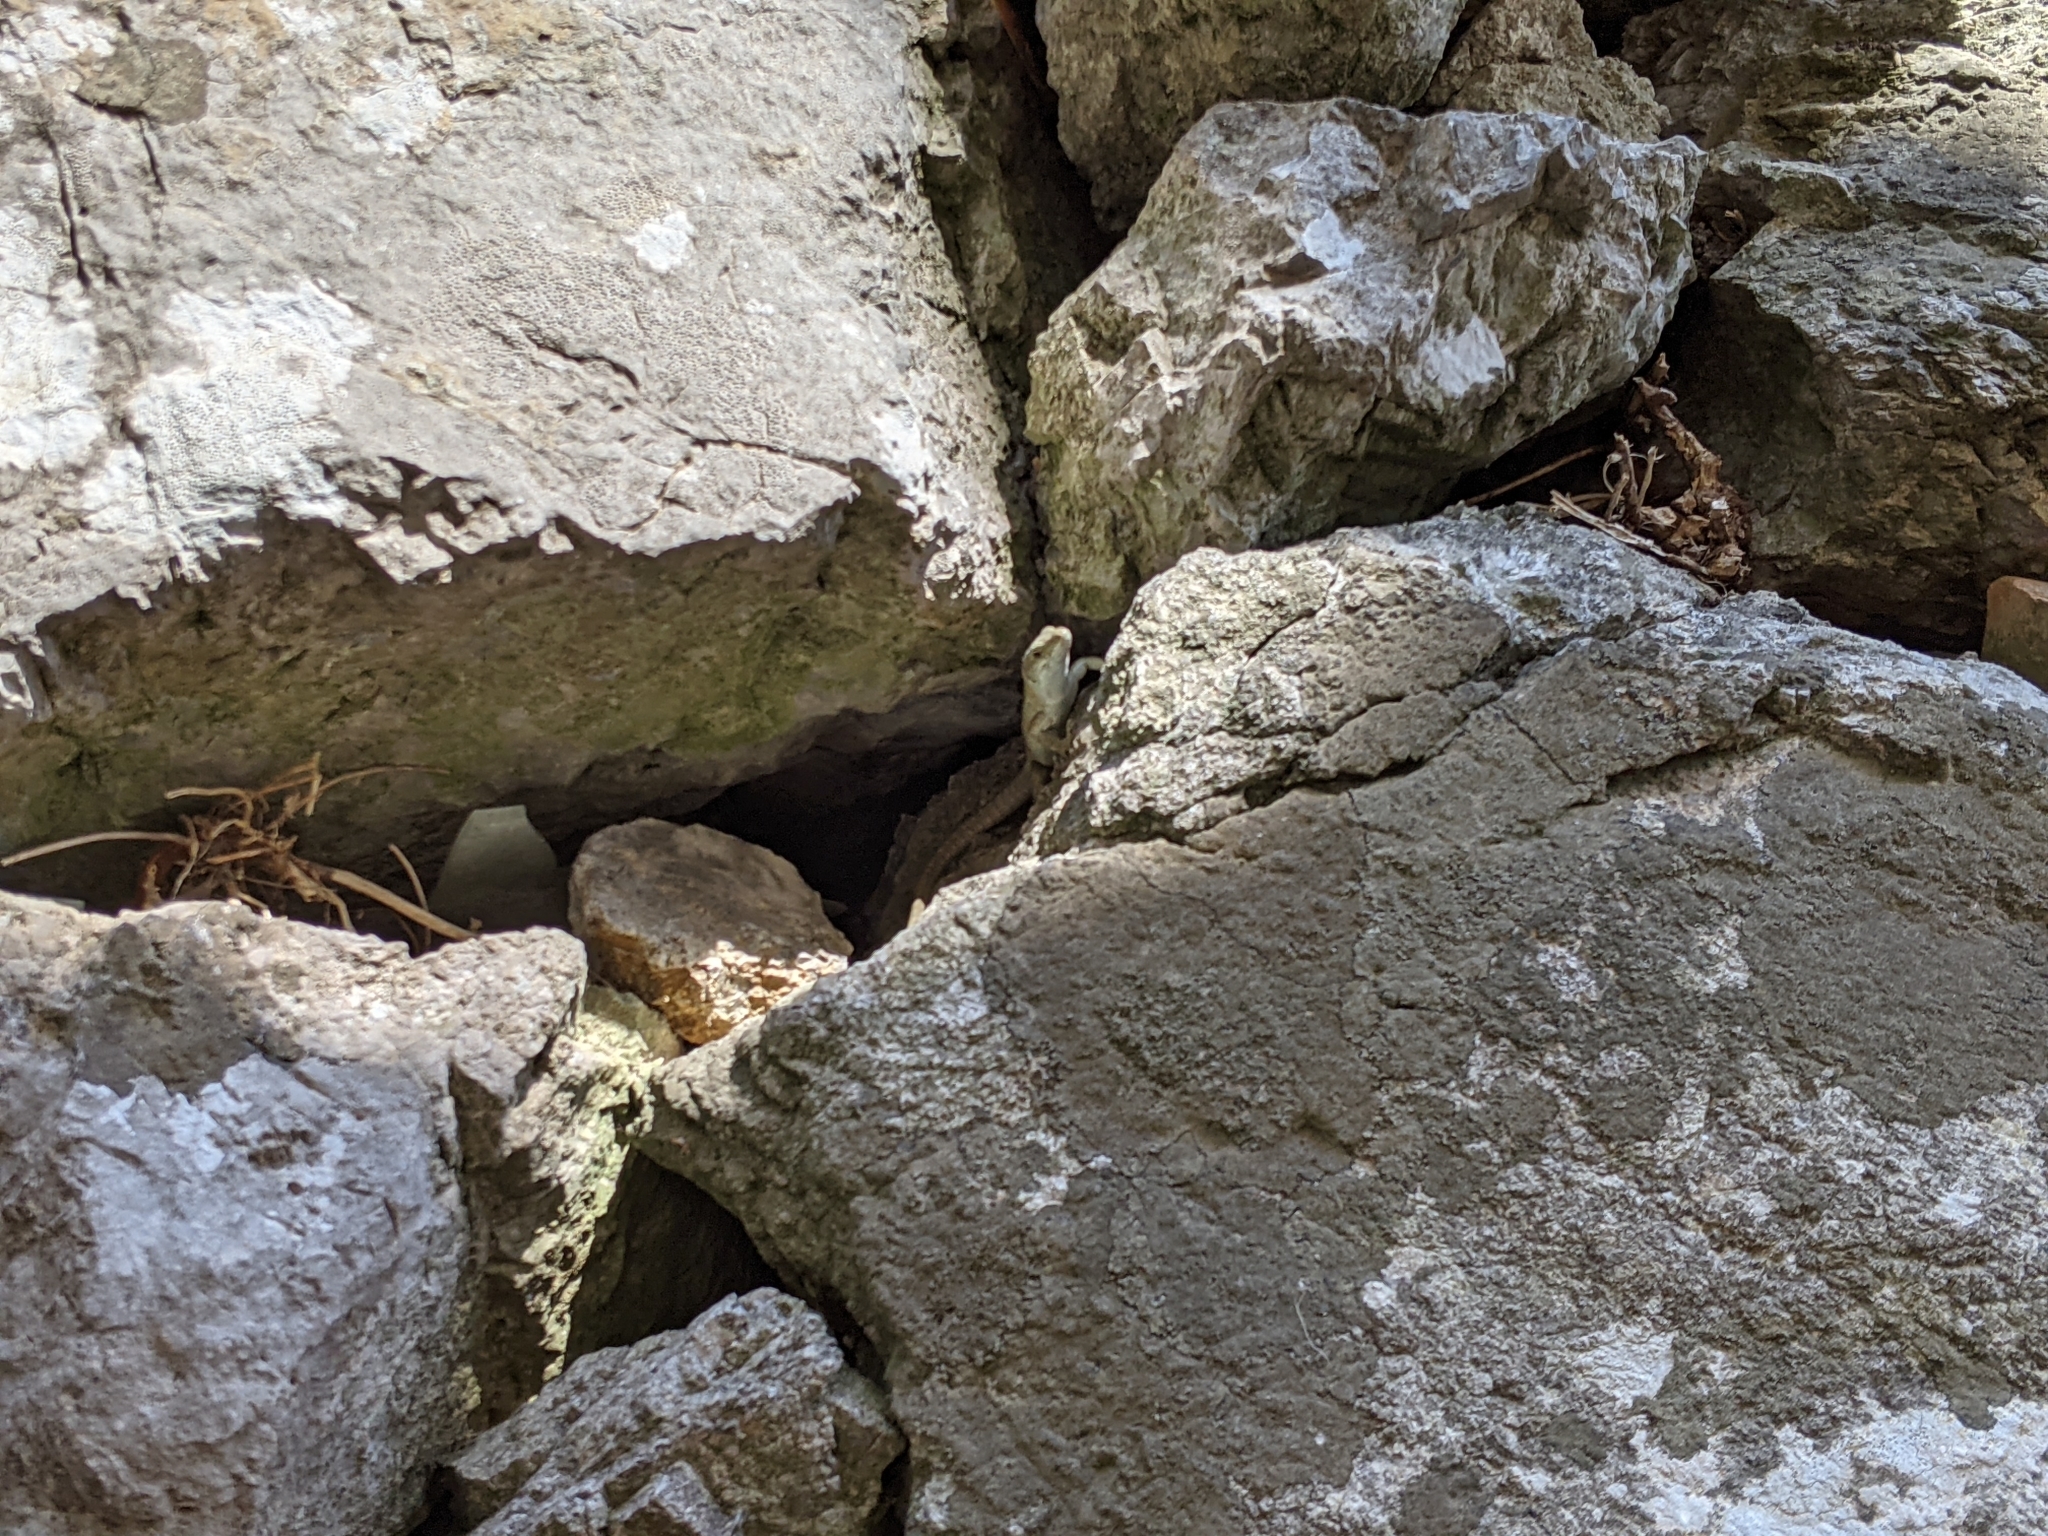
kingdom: Animalia
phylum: Chordata
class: Squamata
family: Lacertidae
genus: Podarcis
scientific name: Podarcis siculus
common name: Italian wall lizard
